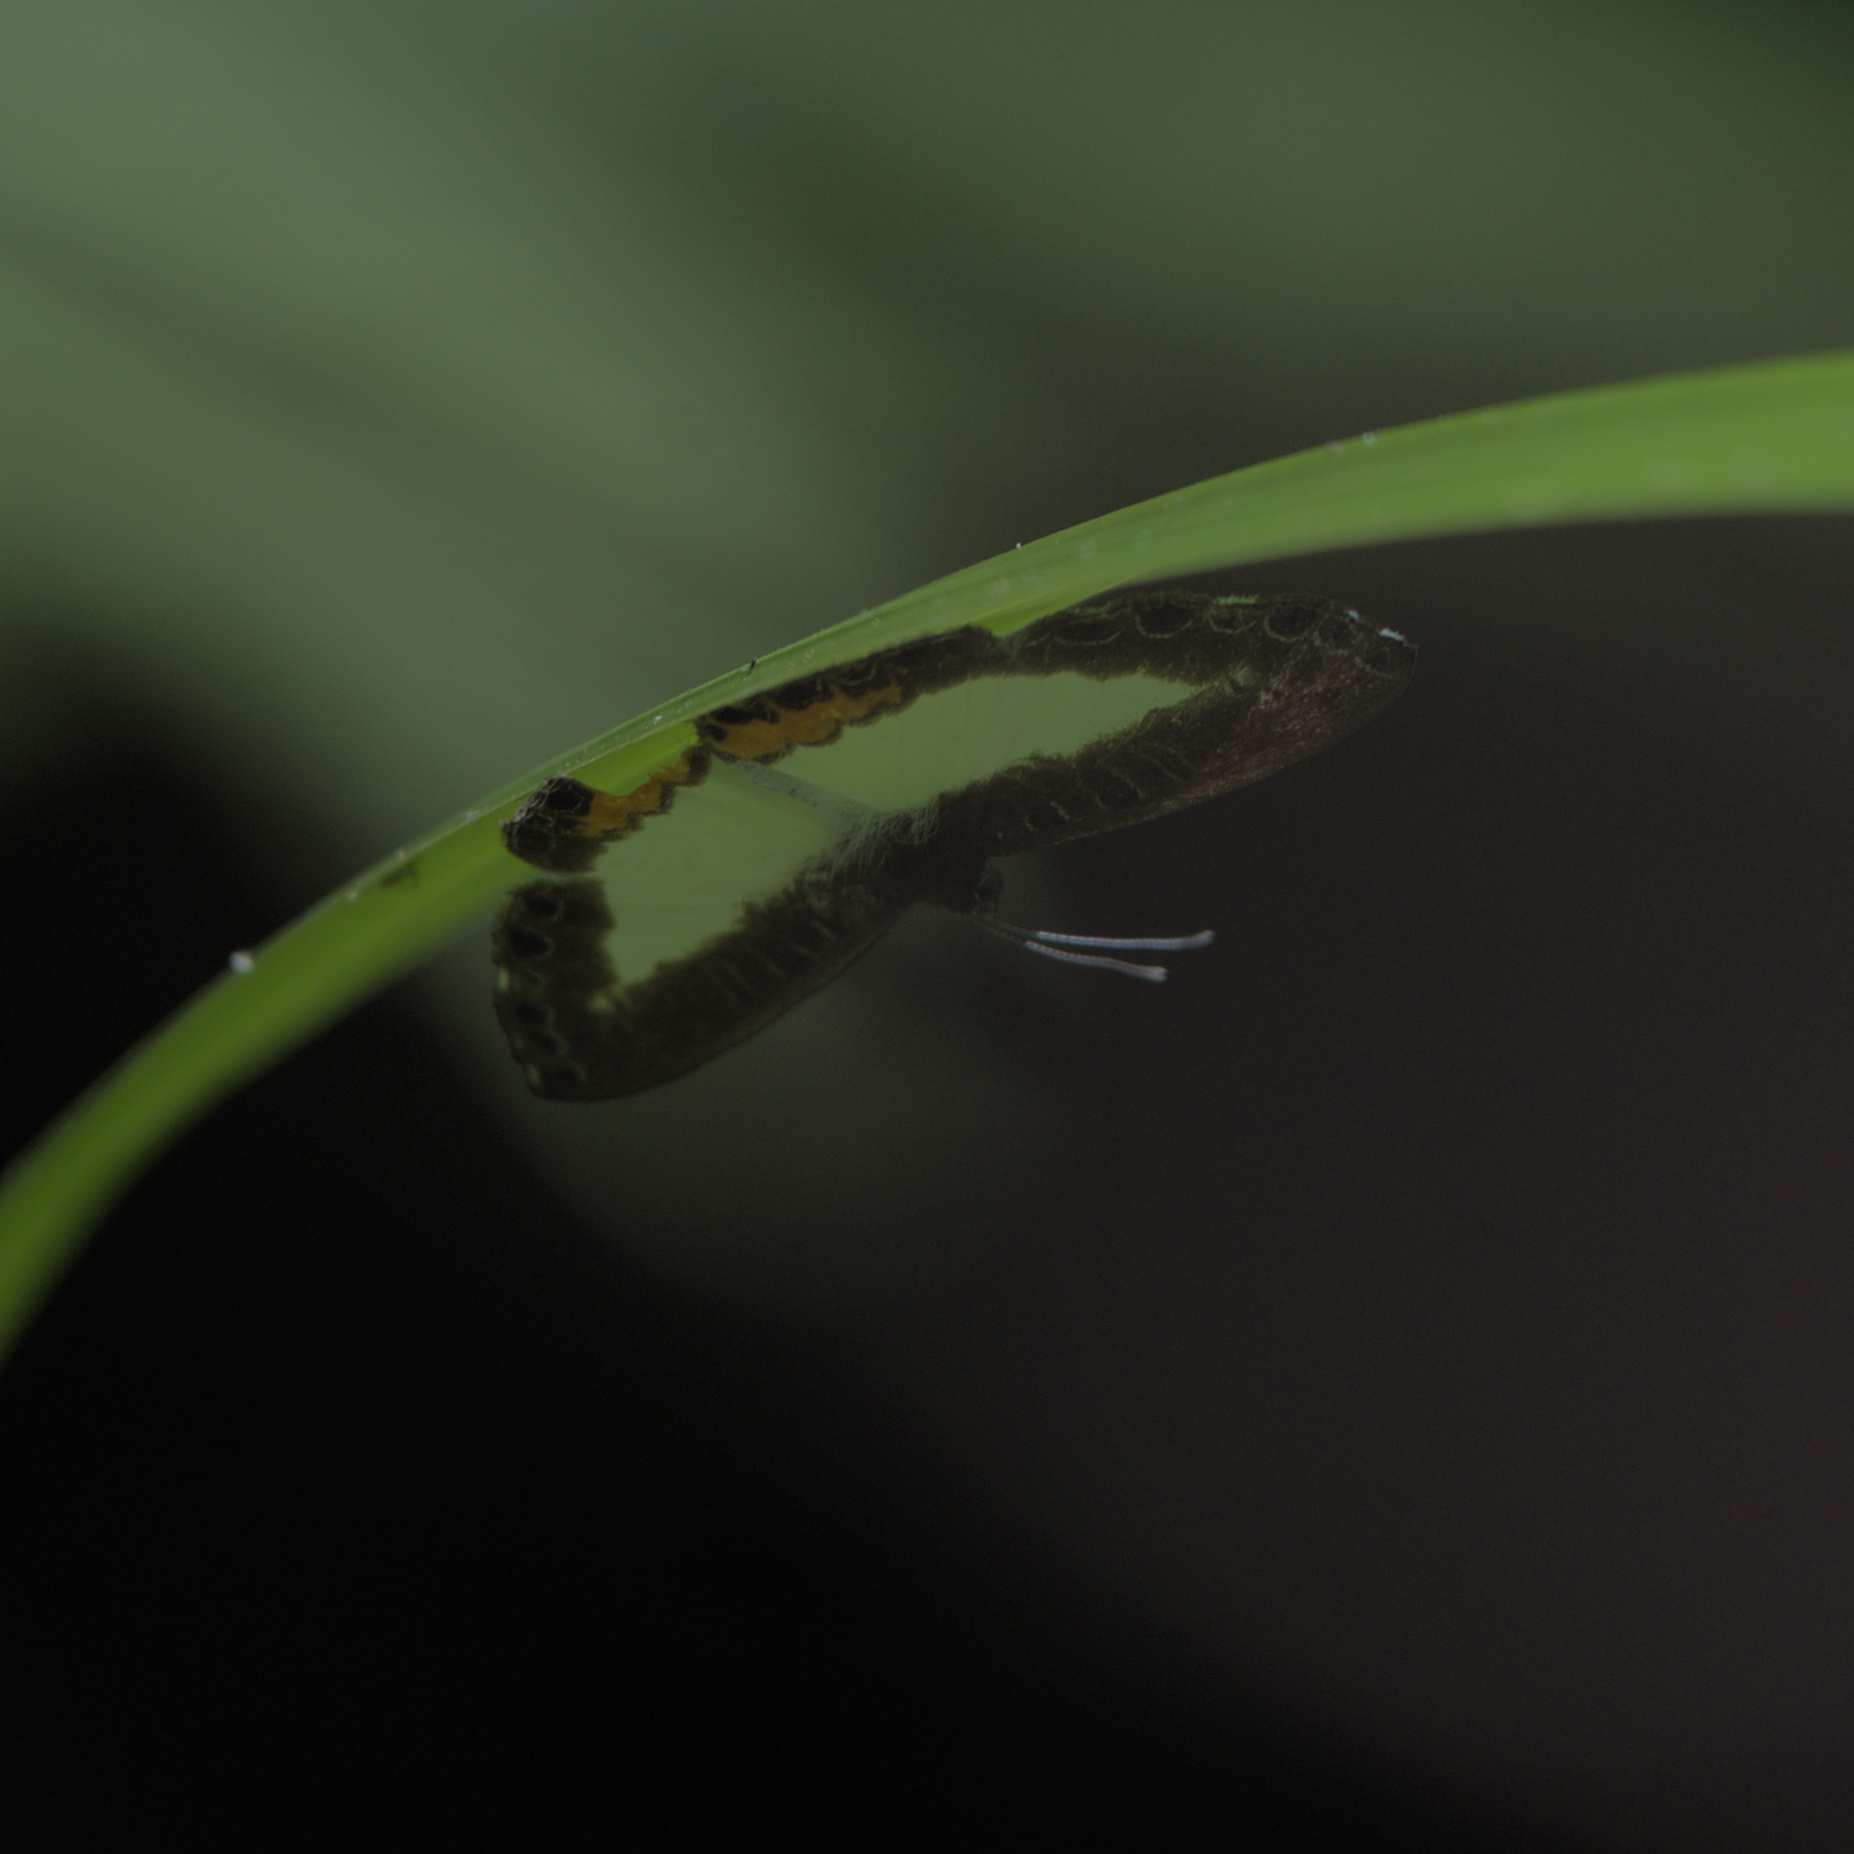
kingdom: Animalia
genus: Nymphidium
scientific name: Nymphidium haematostictum
